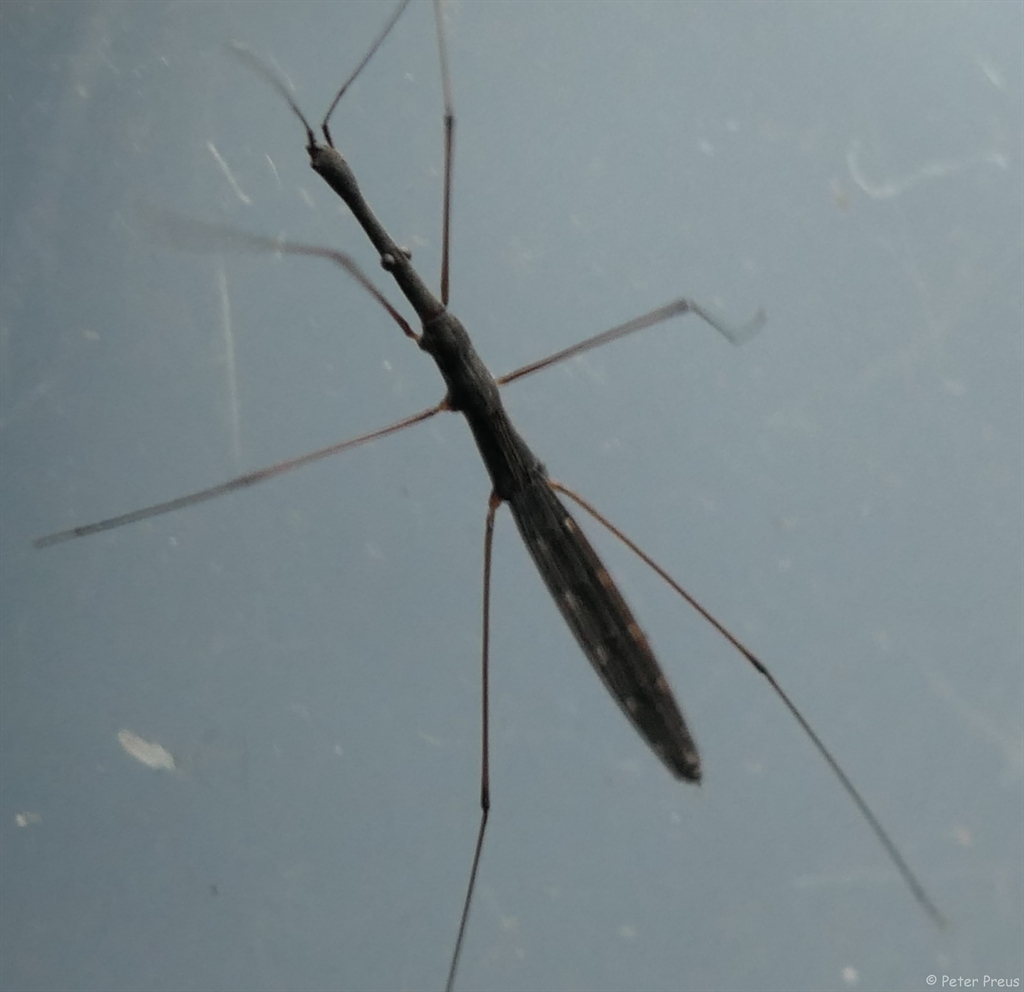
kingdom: Animalia
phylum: Arthropoda
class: Insecta
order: Hemiptera
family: Hydrometridae
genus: Hydrometra
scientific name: Hydrometra stagnorum
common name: Water measurer
